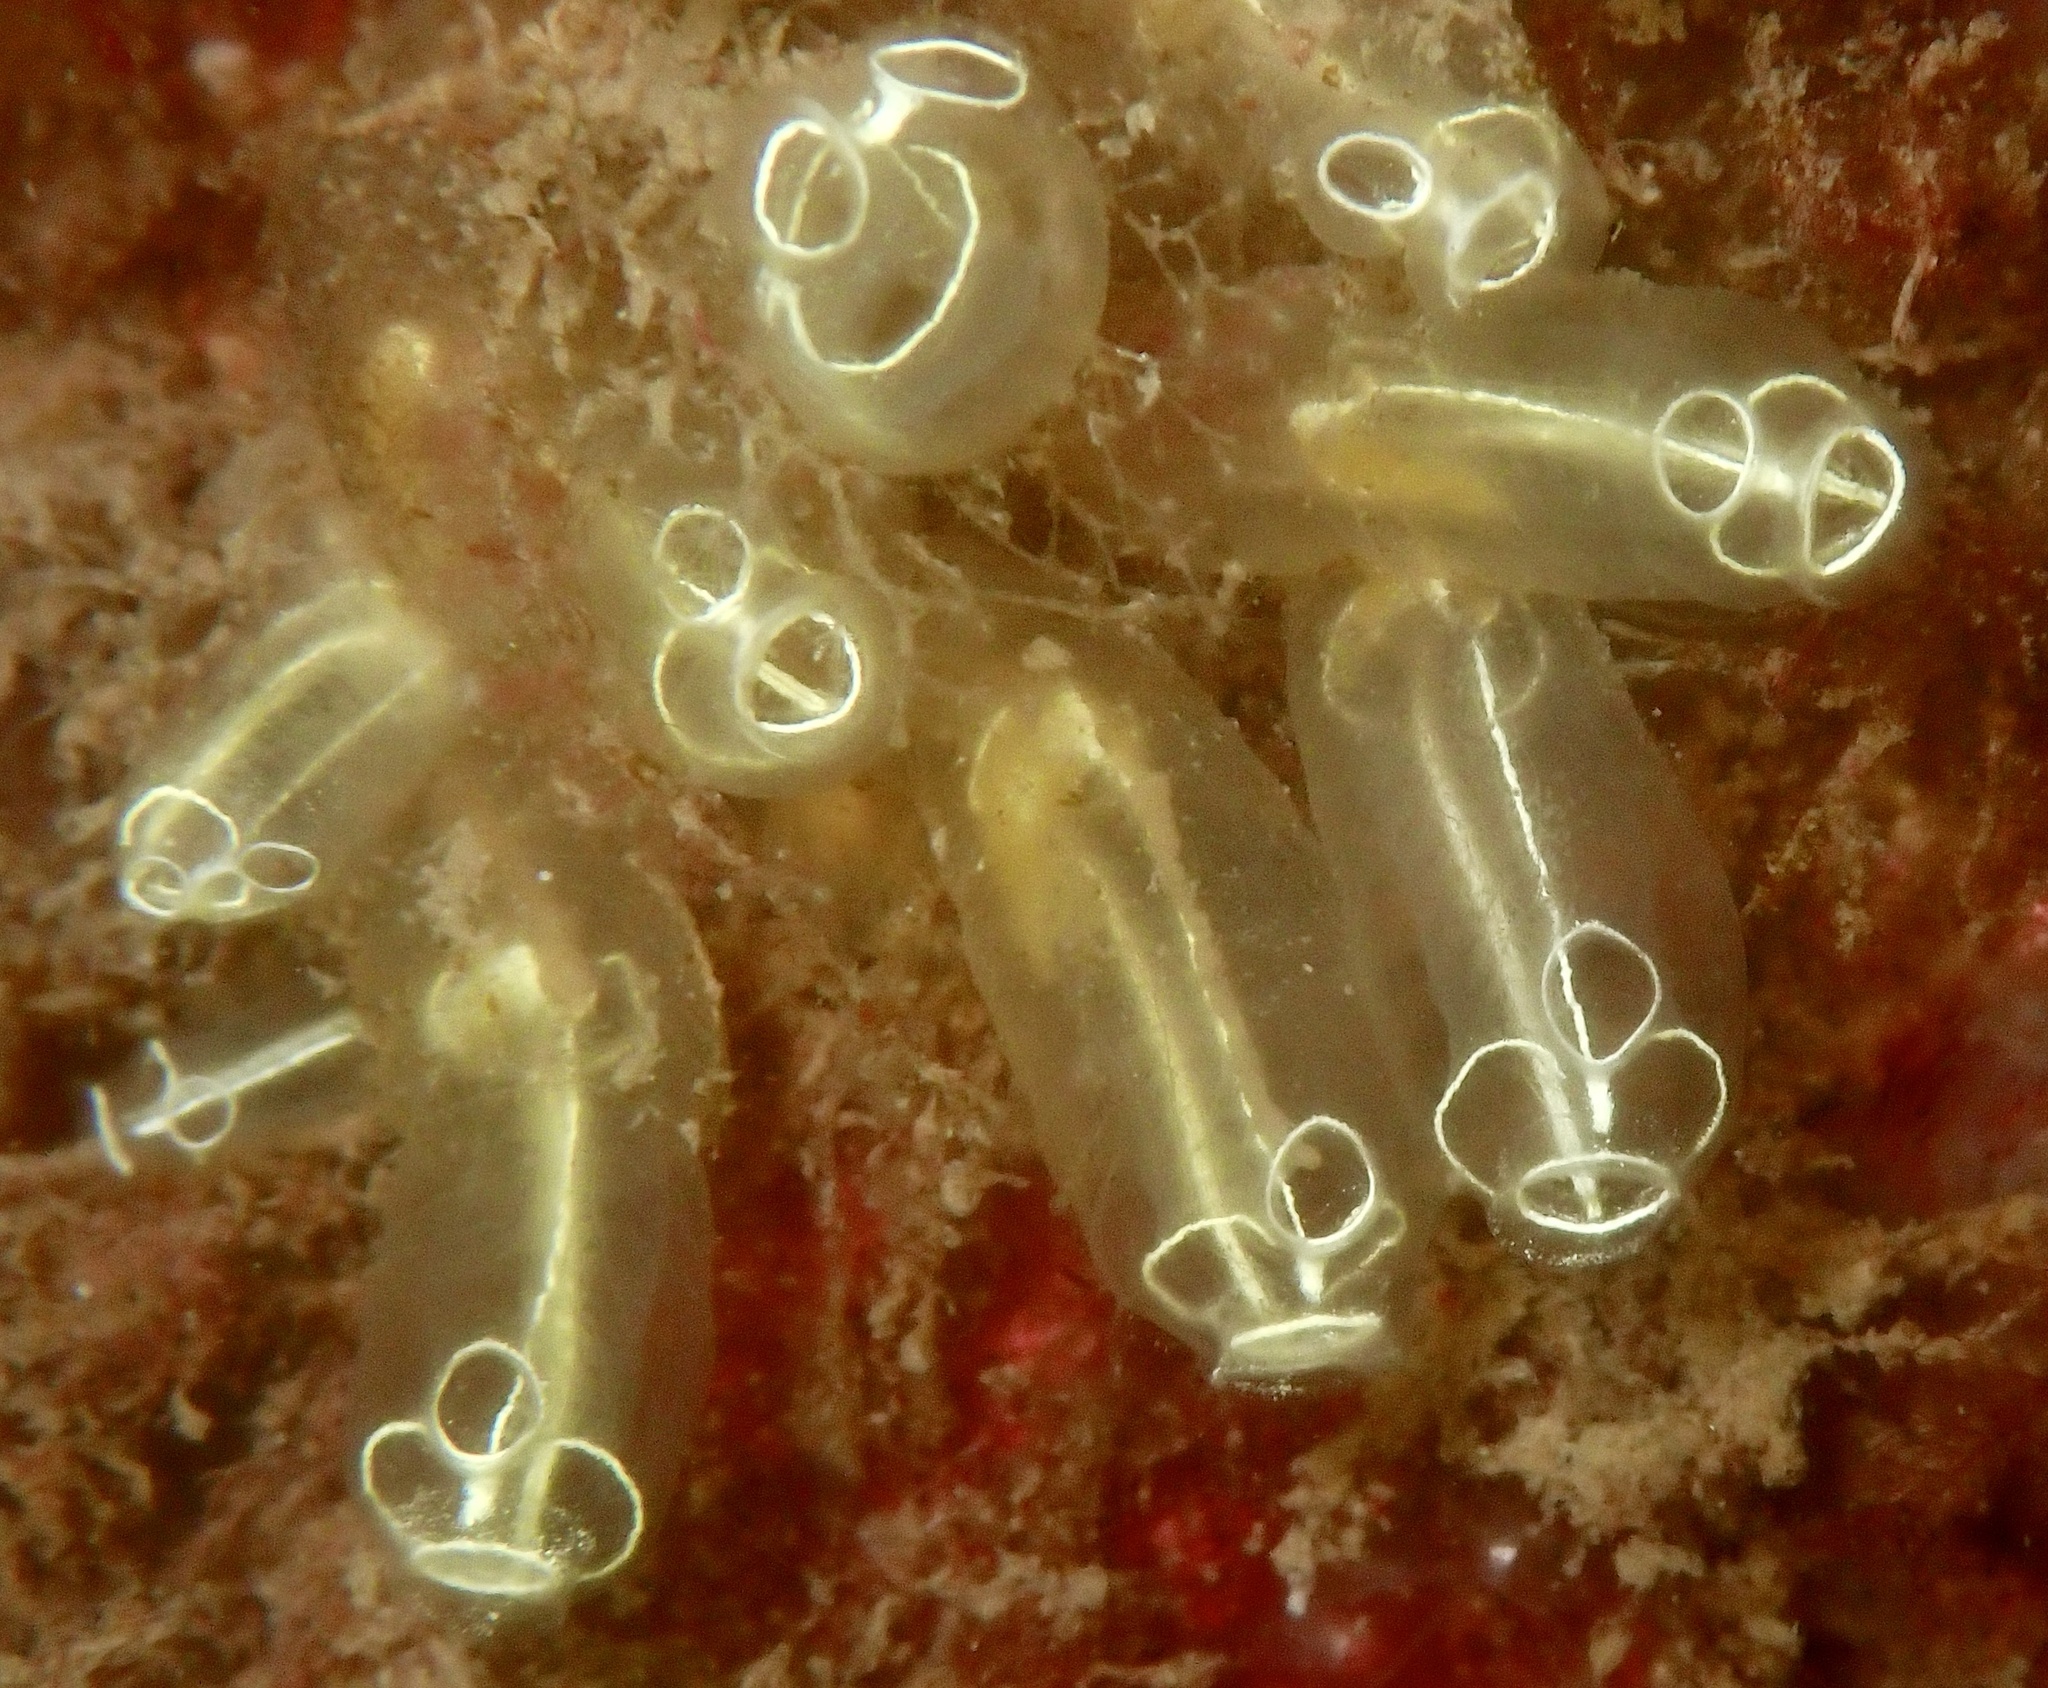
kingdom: Animalia
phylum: Chordata
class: Ascidiacea
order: Aplousobranchia
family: Clavelinidae
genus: Clavelina
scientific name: Clavelina lepadiformis
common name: Light bulb tunicate
